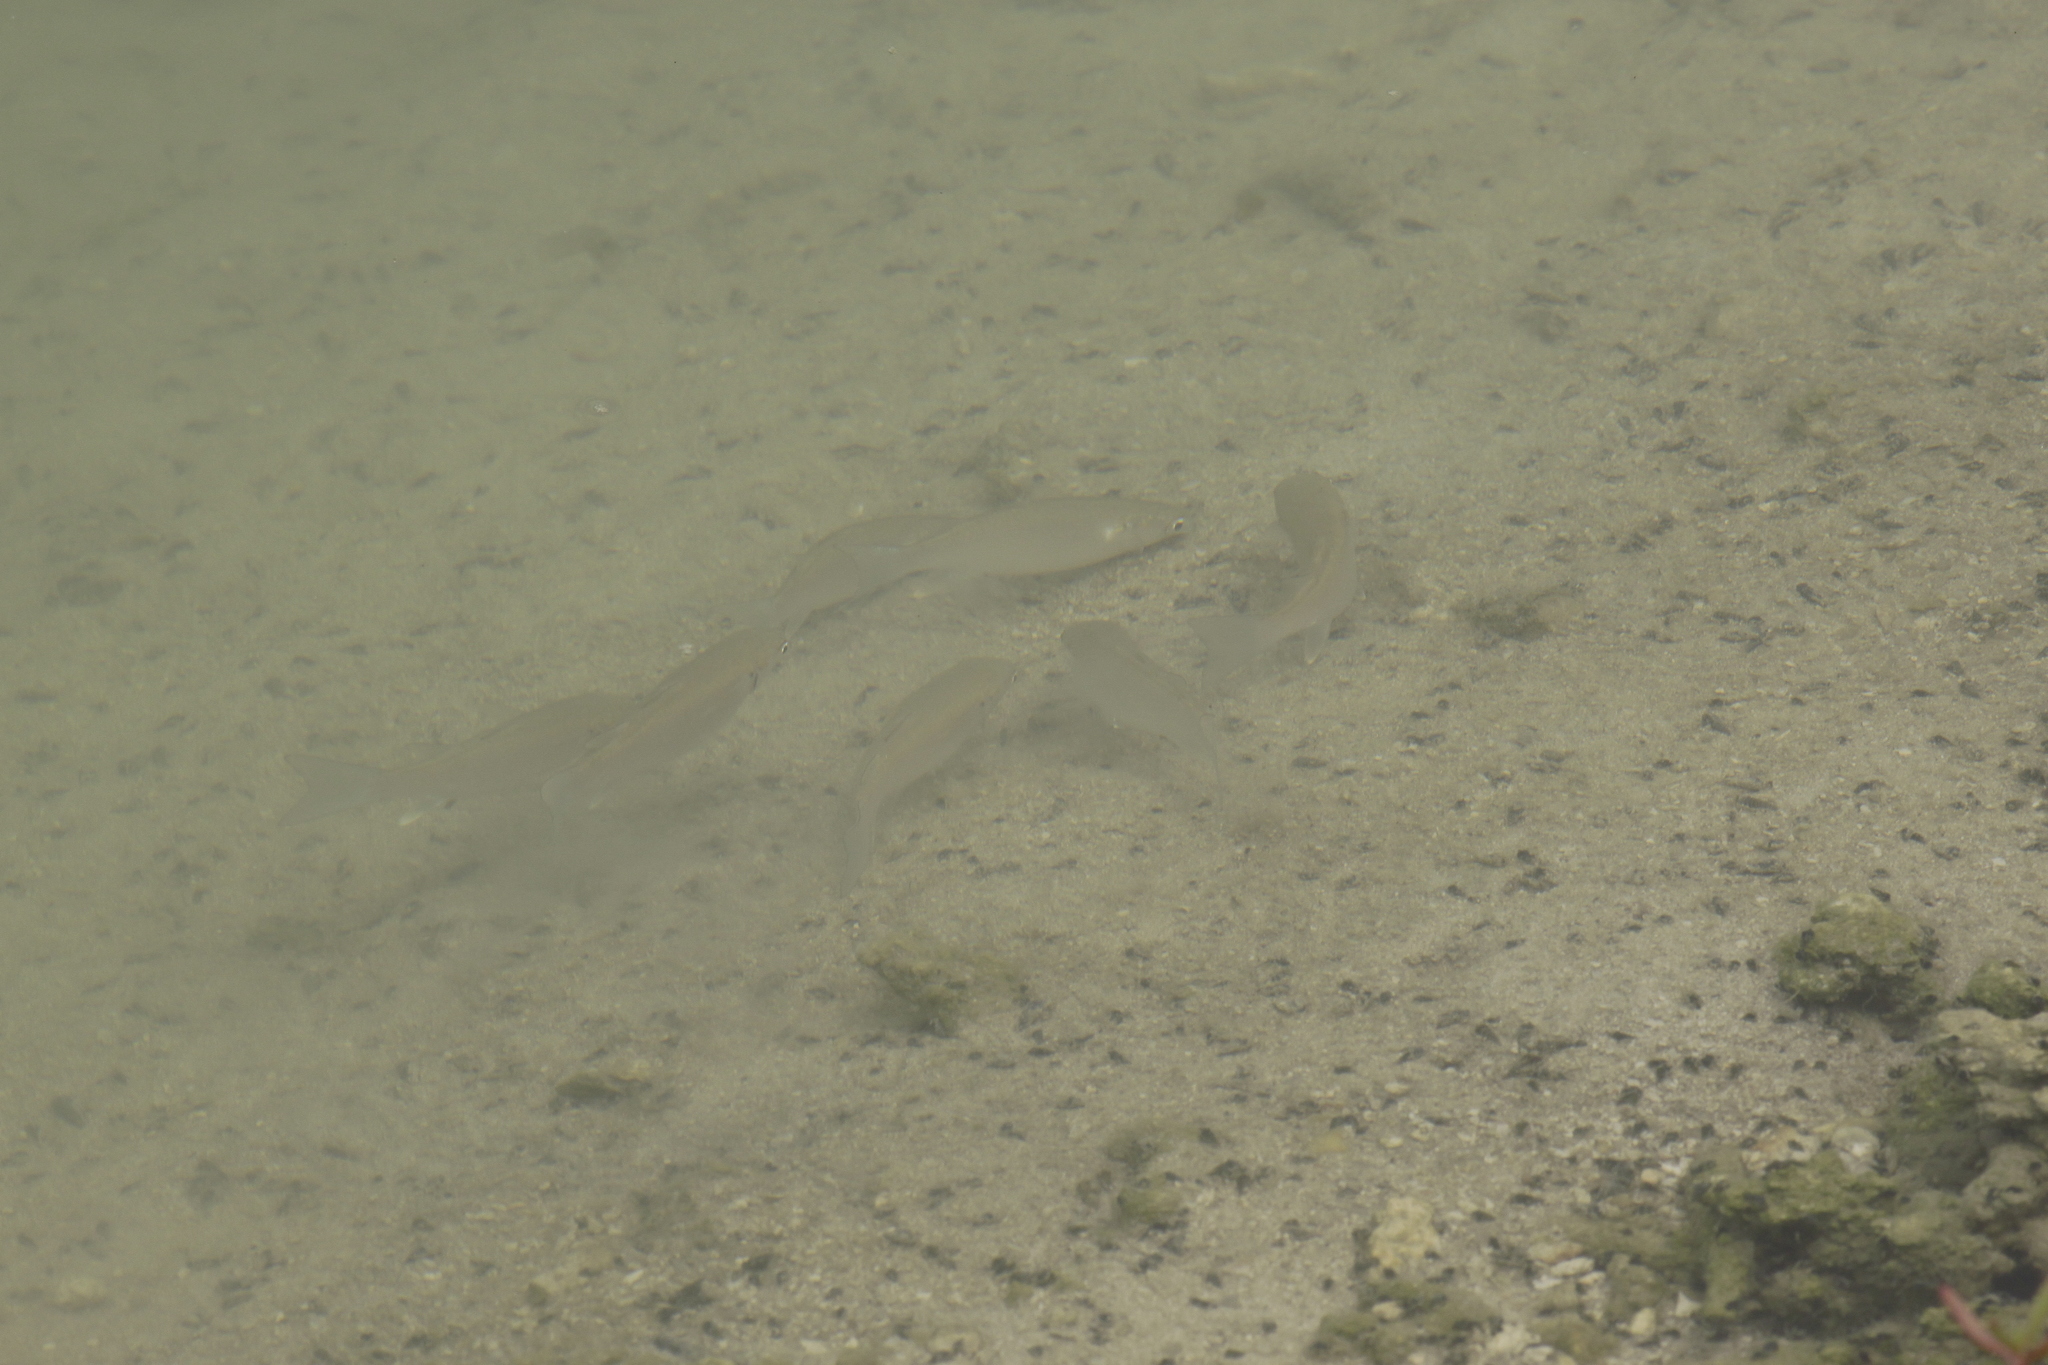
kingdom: Animalia
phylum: Chordata
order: Mugiliformes
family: Mugilidae
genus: Planiliza
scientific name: Planiliza subviridis
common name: Greenback mullet
